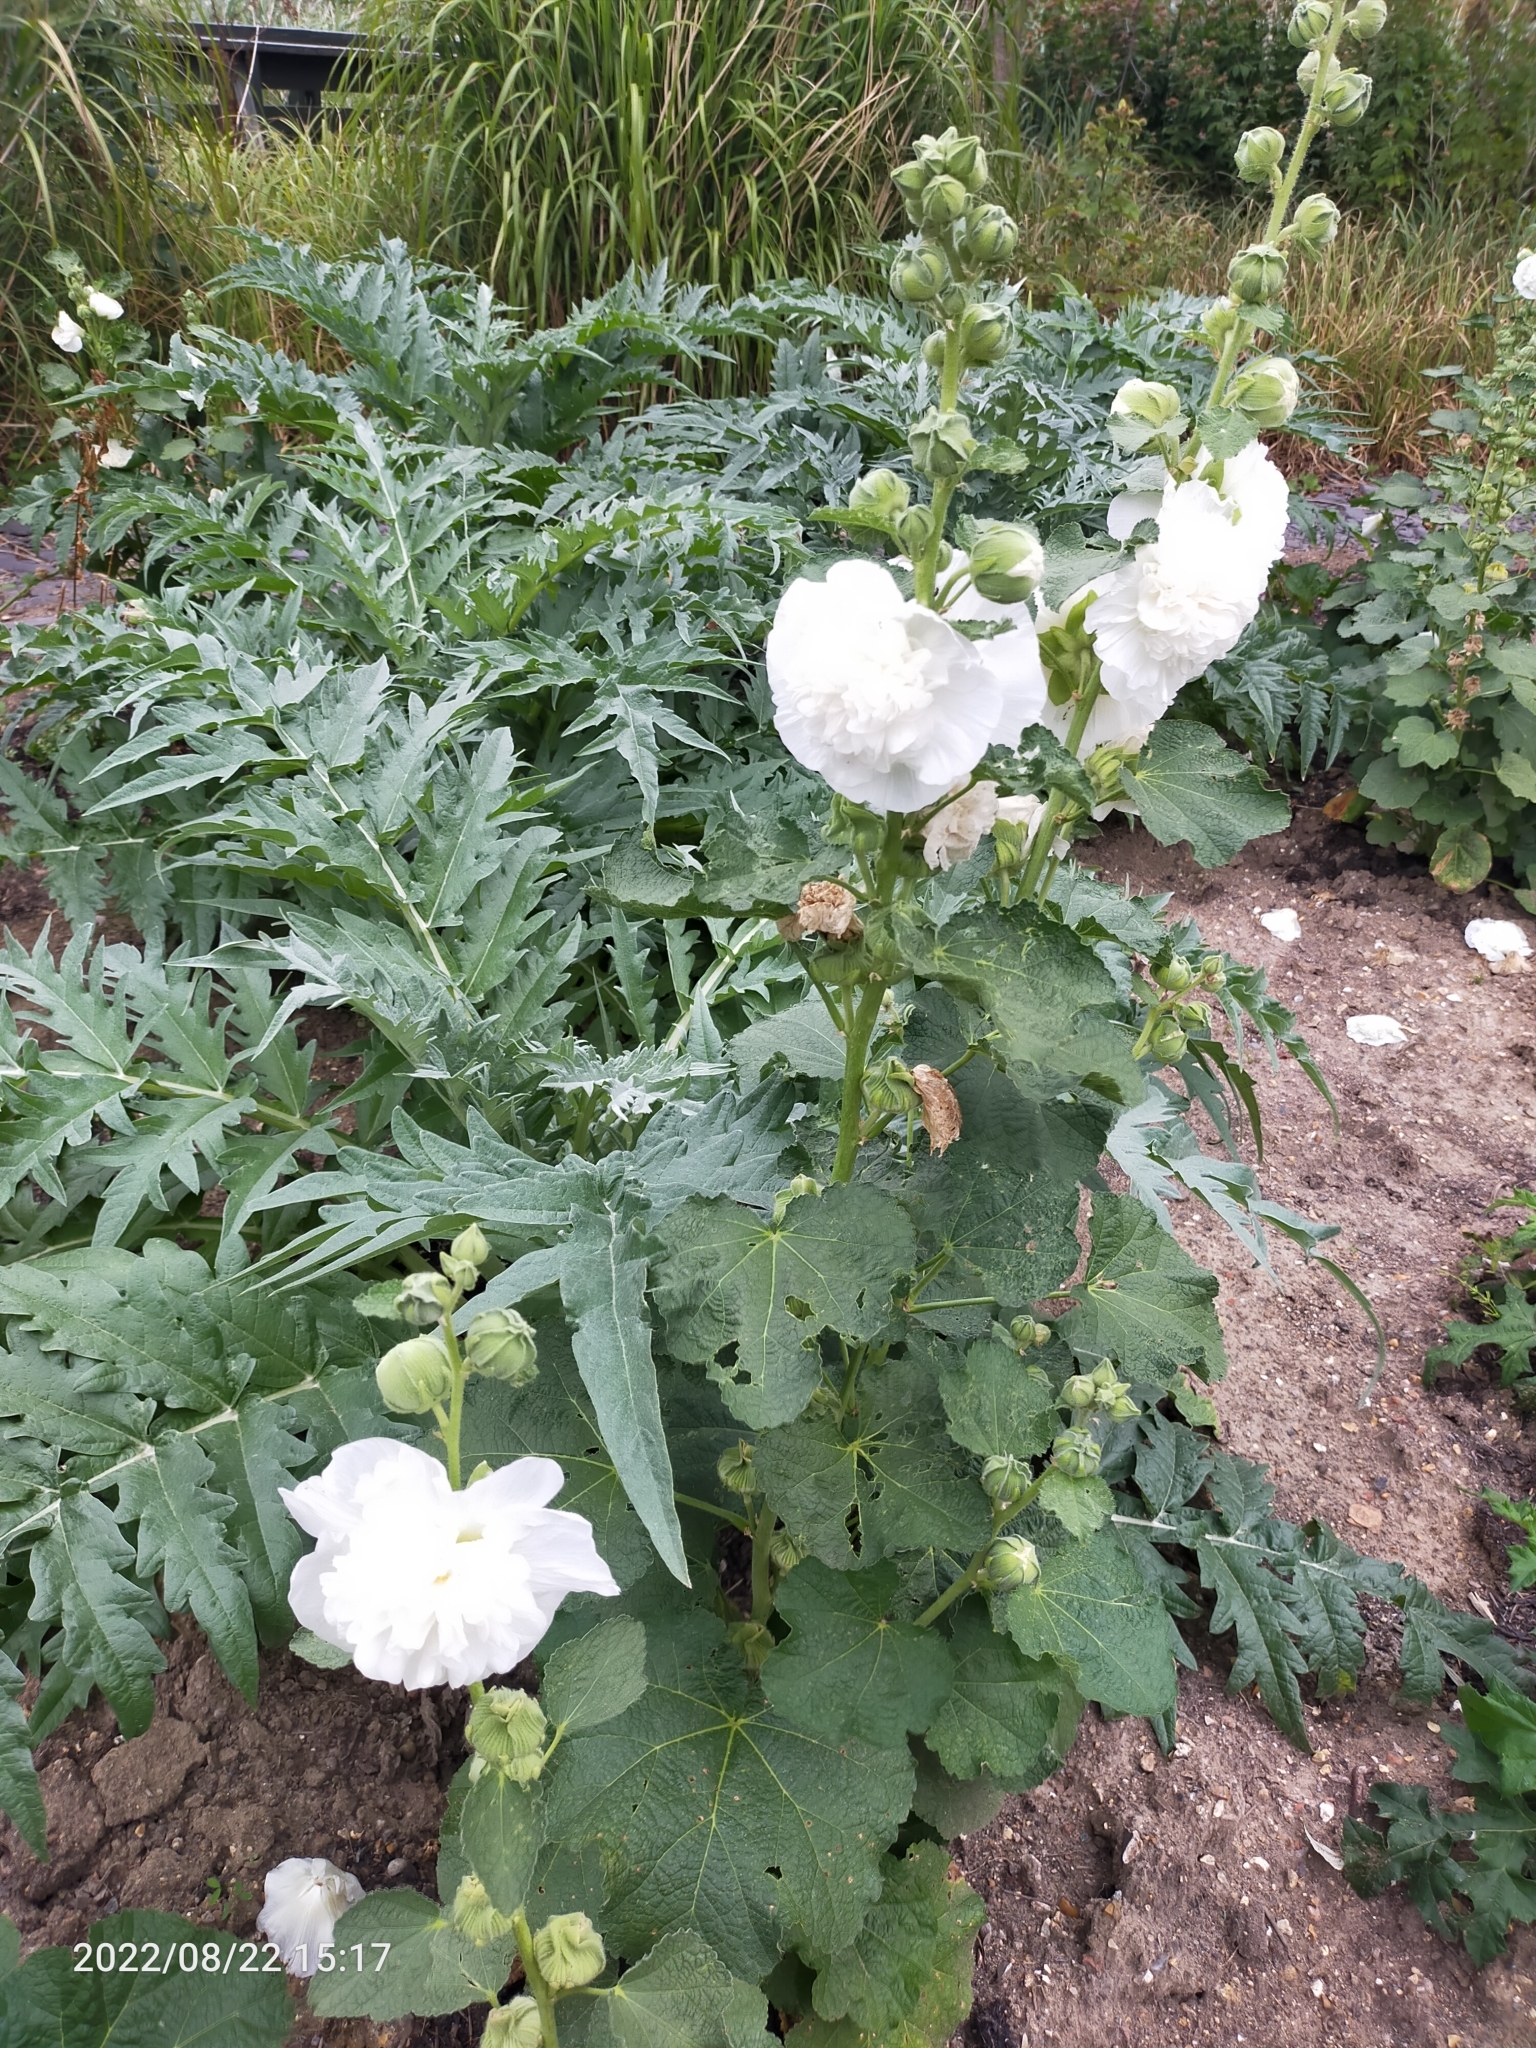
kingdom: Plantae
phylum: Tracheophyta
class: Magnoliopsida
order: Malvales
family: Malvaceae
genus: Alcea
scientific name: Alcea rosea
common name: Hollyhock
